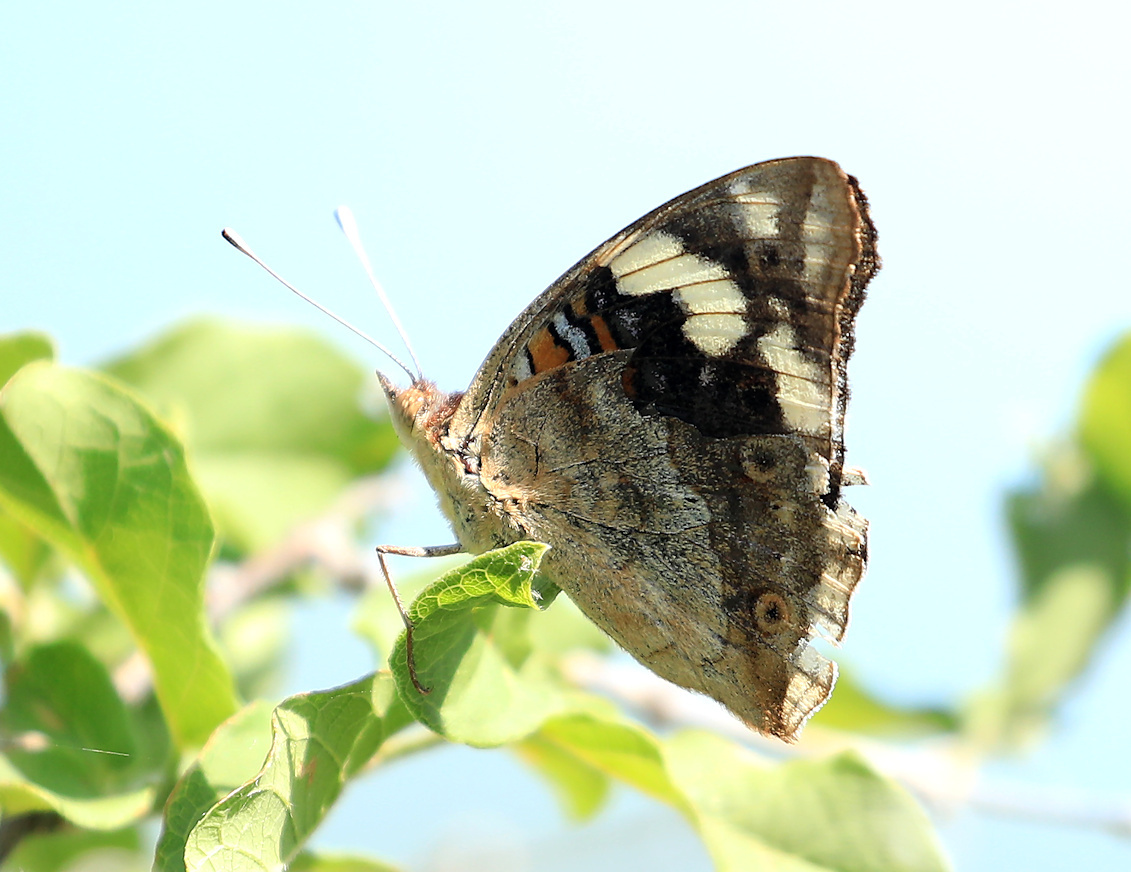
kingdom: Animalia
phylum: Arthropoda
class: Insecta
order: Lepidoptera
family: Nymphalidae
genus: Junonia
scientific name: Junonia oenone
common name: Dark blue pansy
